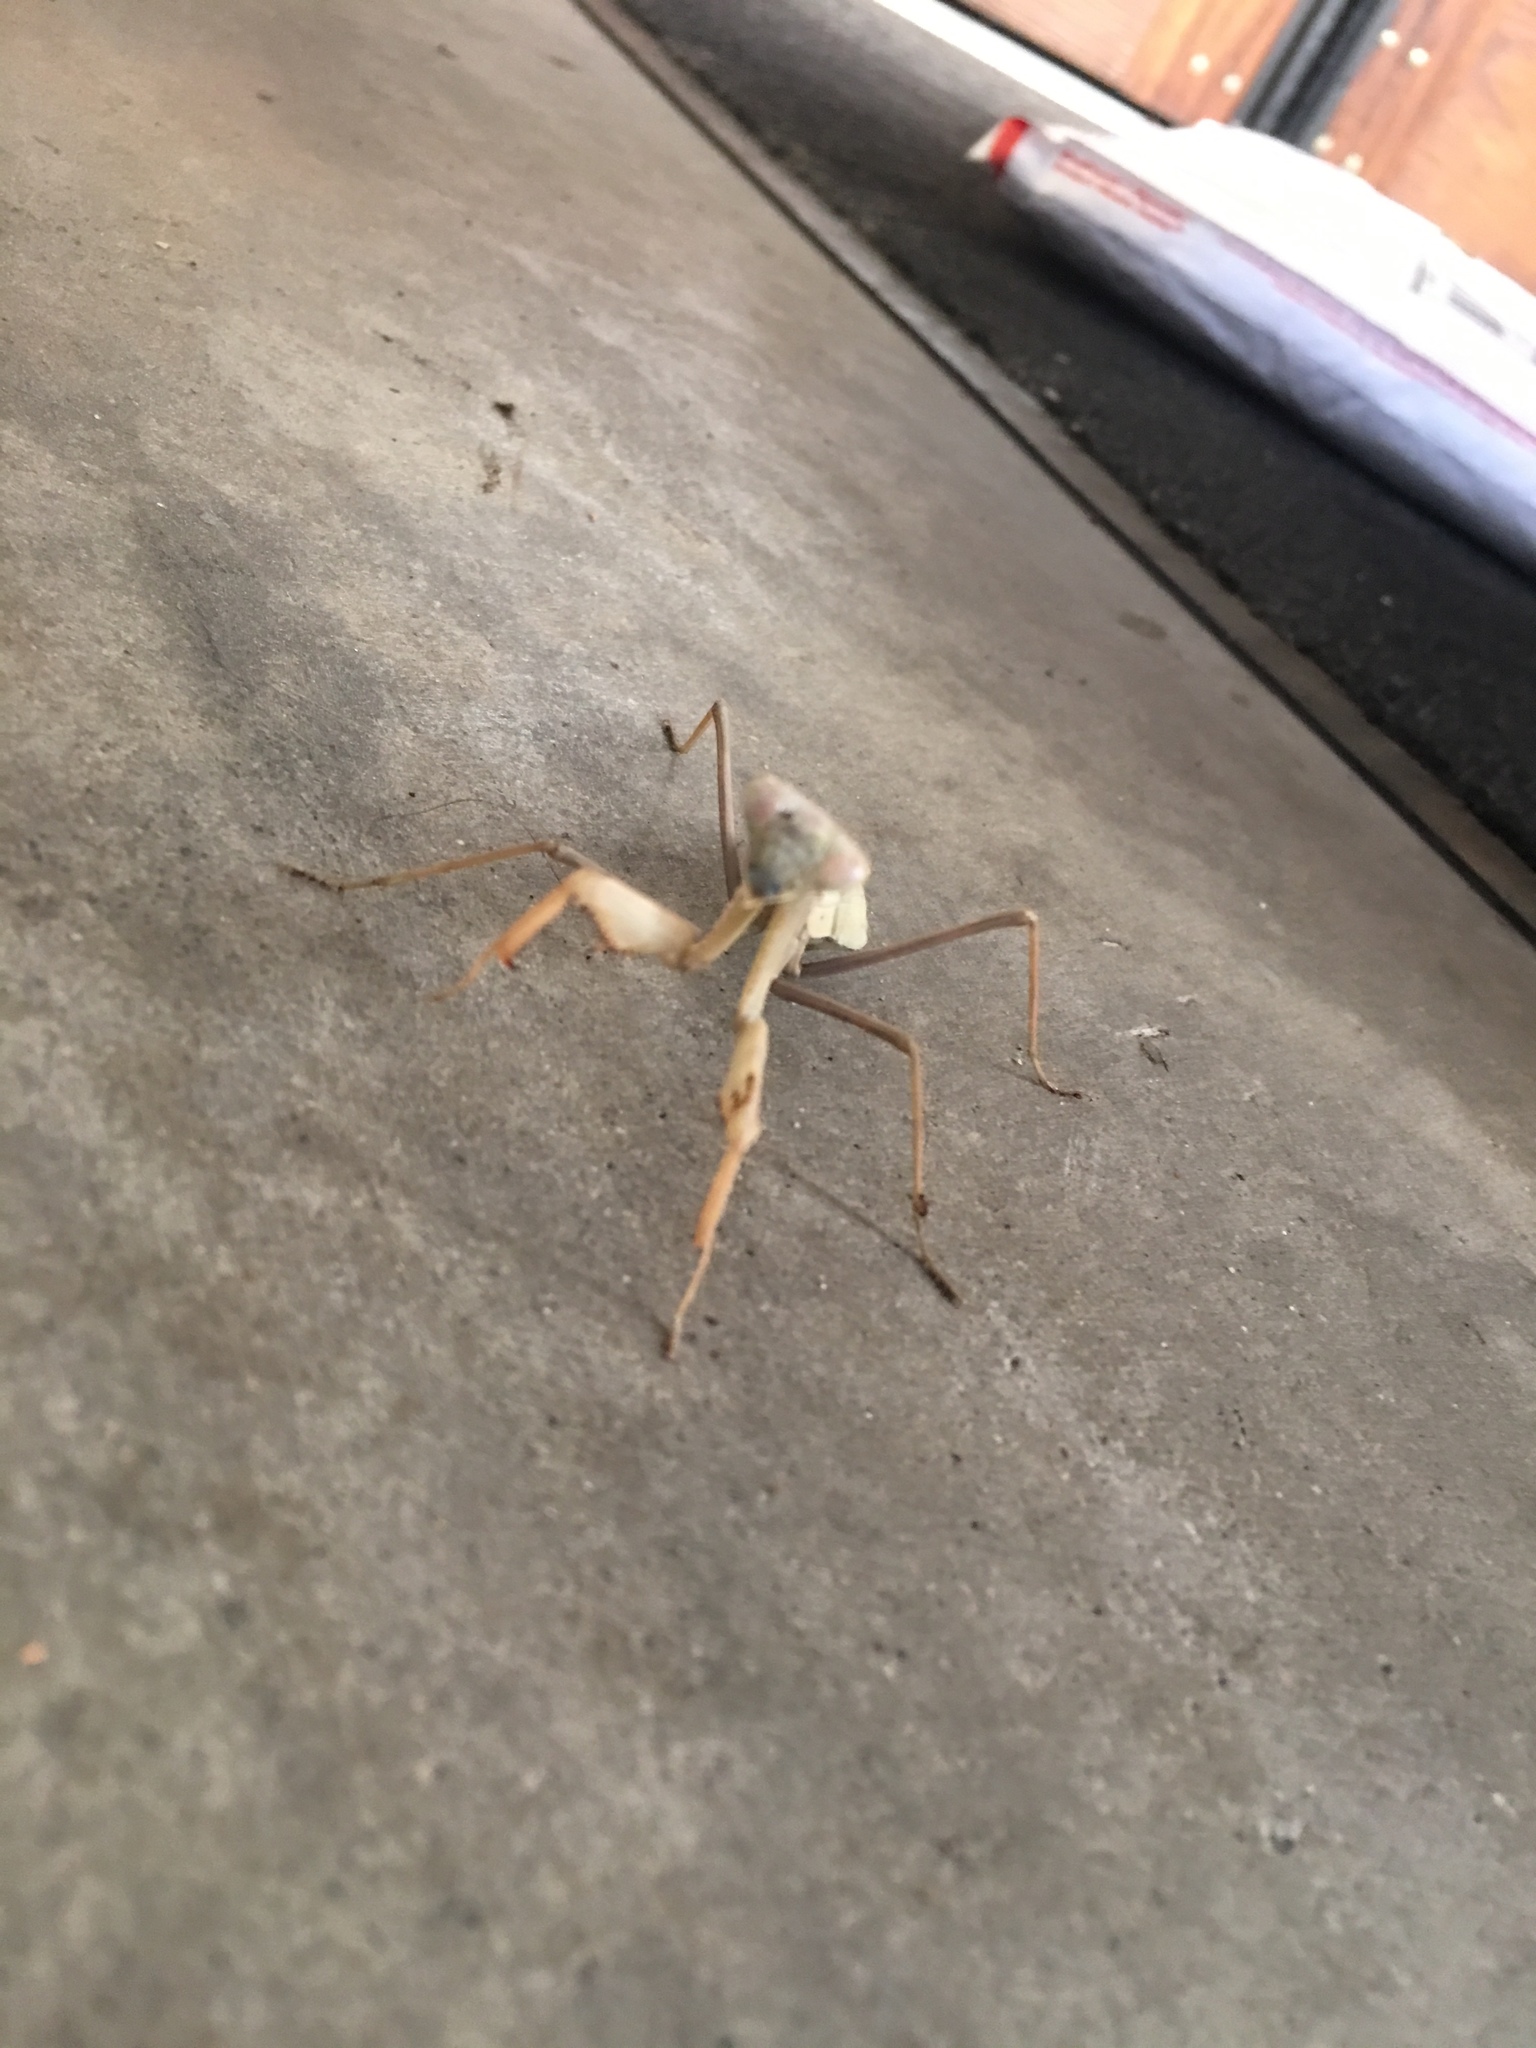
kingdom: Animalia
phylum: Arthropoda
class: Insecta
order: Mantodea
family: Mantidae
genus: Stagmomantis
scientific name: Stagmomantis limbata
